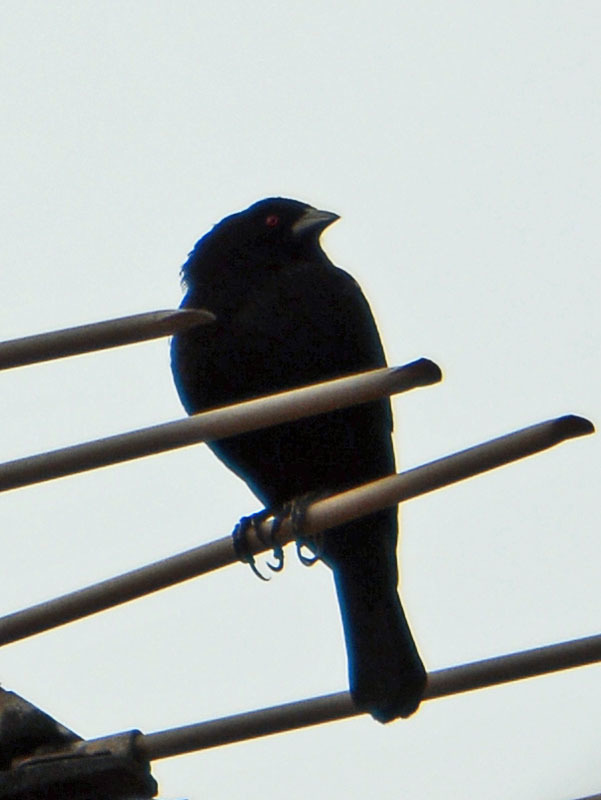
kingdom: Animalia
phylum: Chordata
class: Aves
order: Passeriformes
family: Icteridae
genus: Molothrus
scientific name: Molothrus aeneus
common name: Bronzed cowbird
